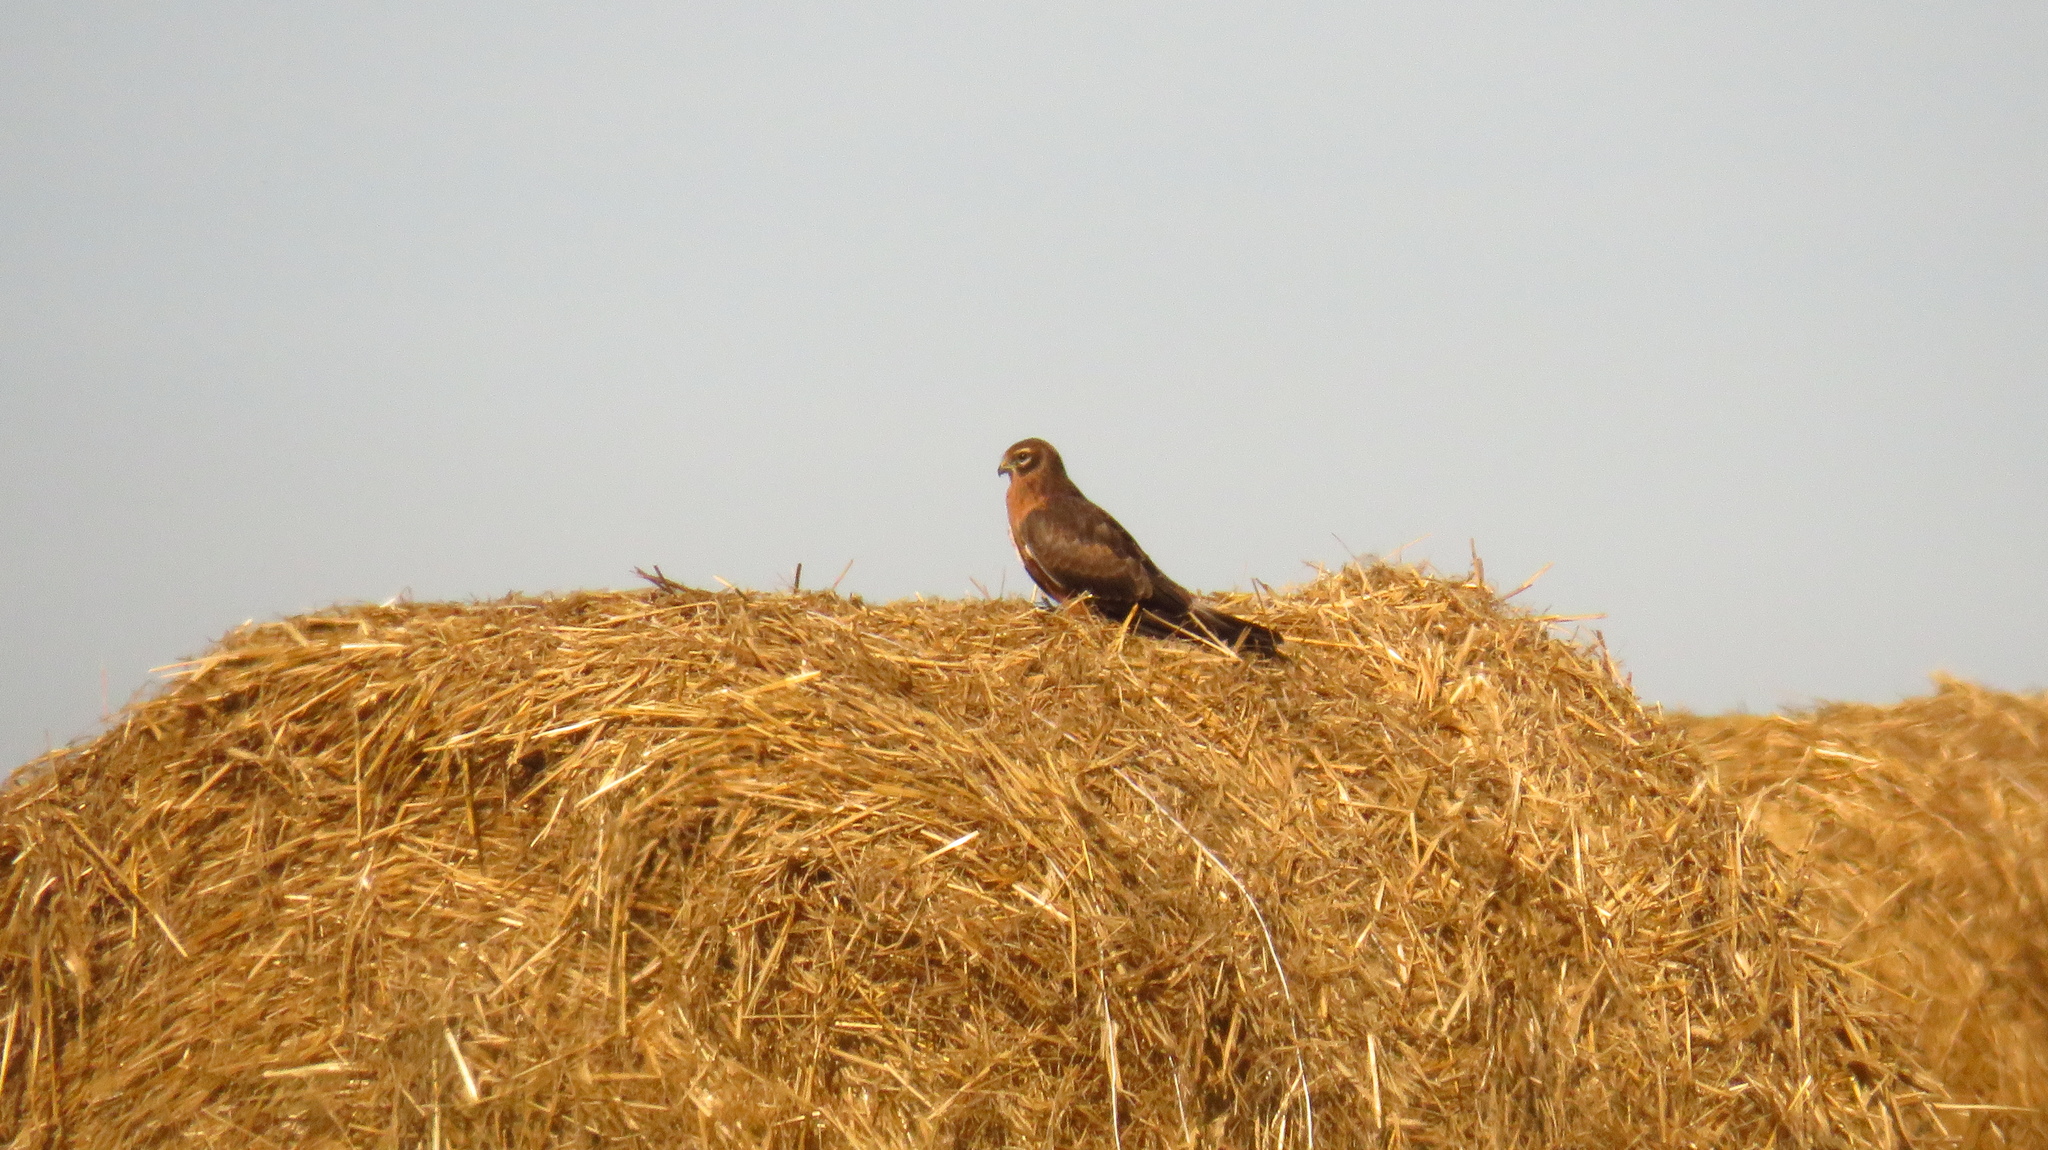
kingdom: Animalia
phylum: Chordata
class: Aves
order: Accipitriformes
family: Accipitridae
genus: Circus
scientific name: Circus pygargus
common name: Montagu's harrier
